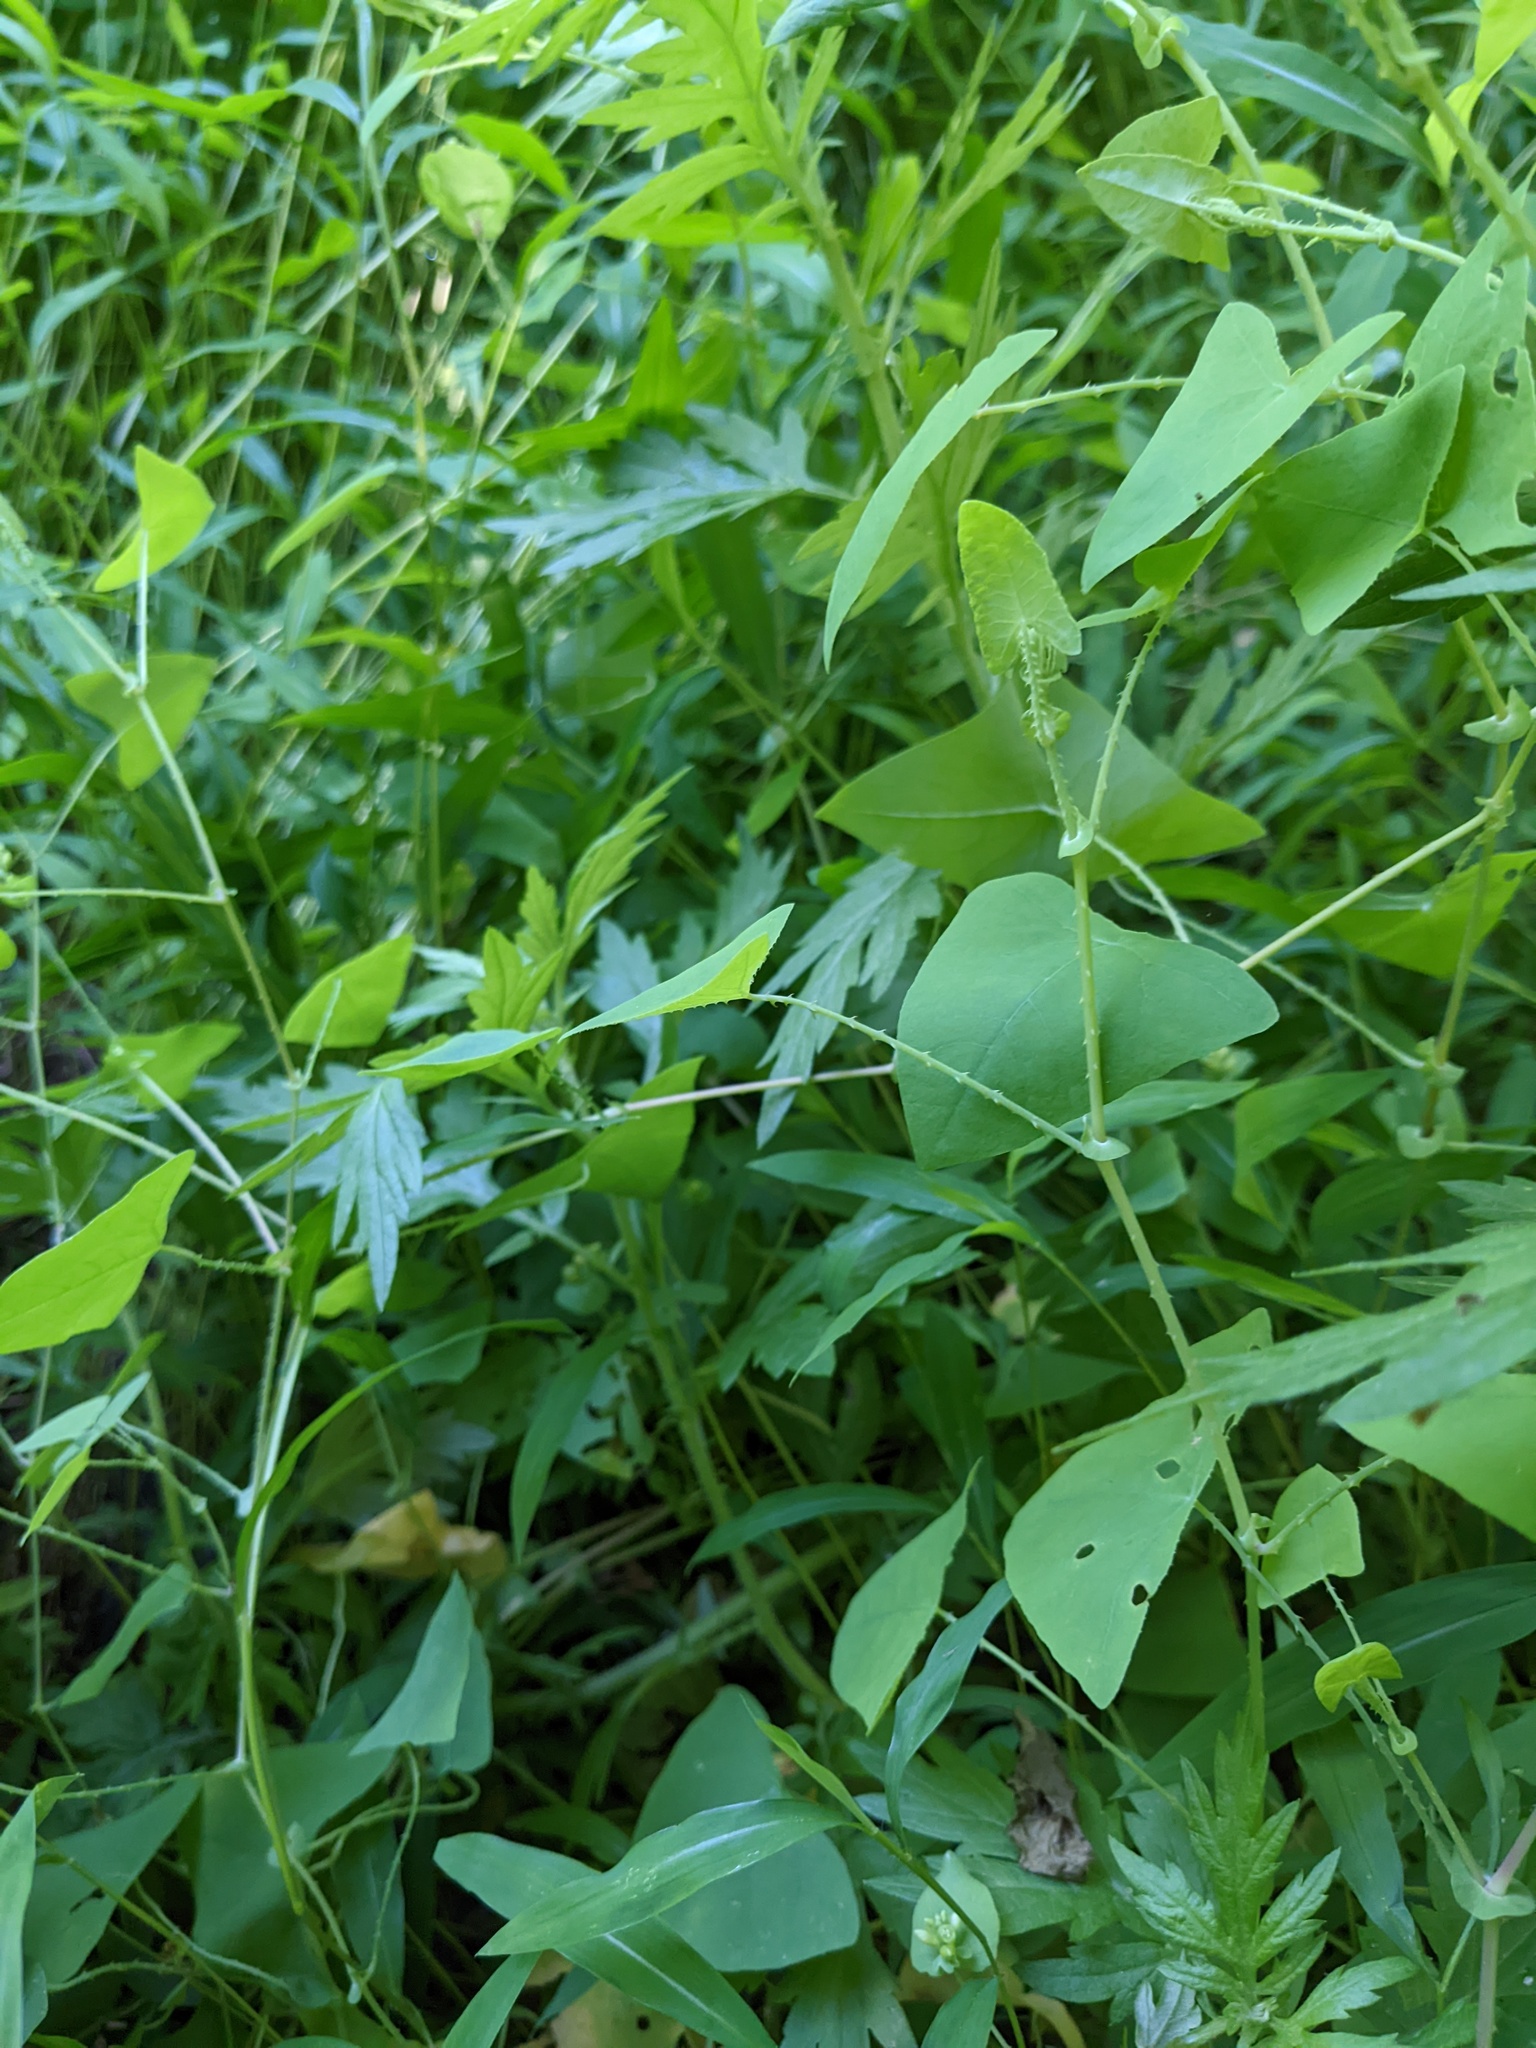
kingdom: Plantae
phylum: Tracheophyta
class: Magnoliopsida
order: Caryophyllales
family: Polygonaceae
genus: Persicaria
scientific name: Persicaria perfoliata
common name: Asiatic tearthumb
